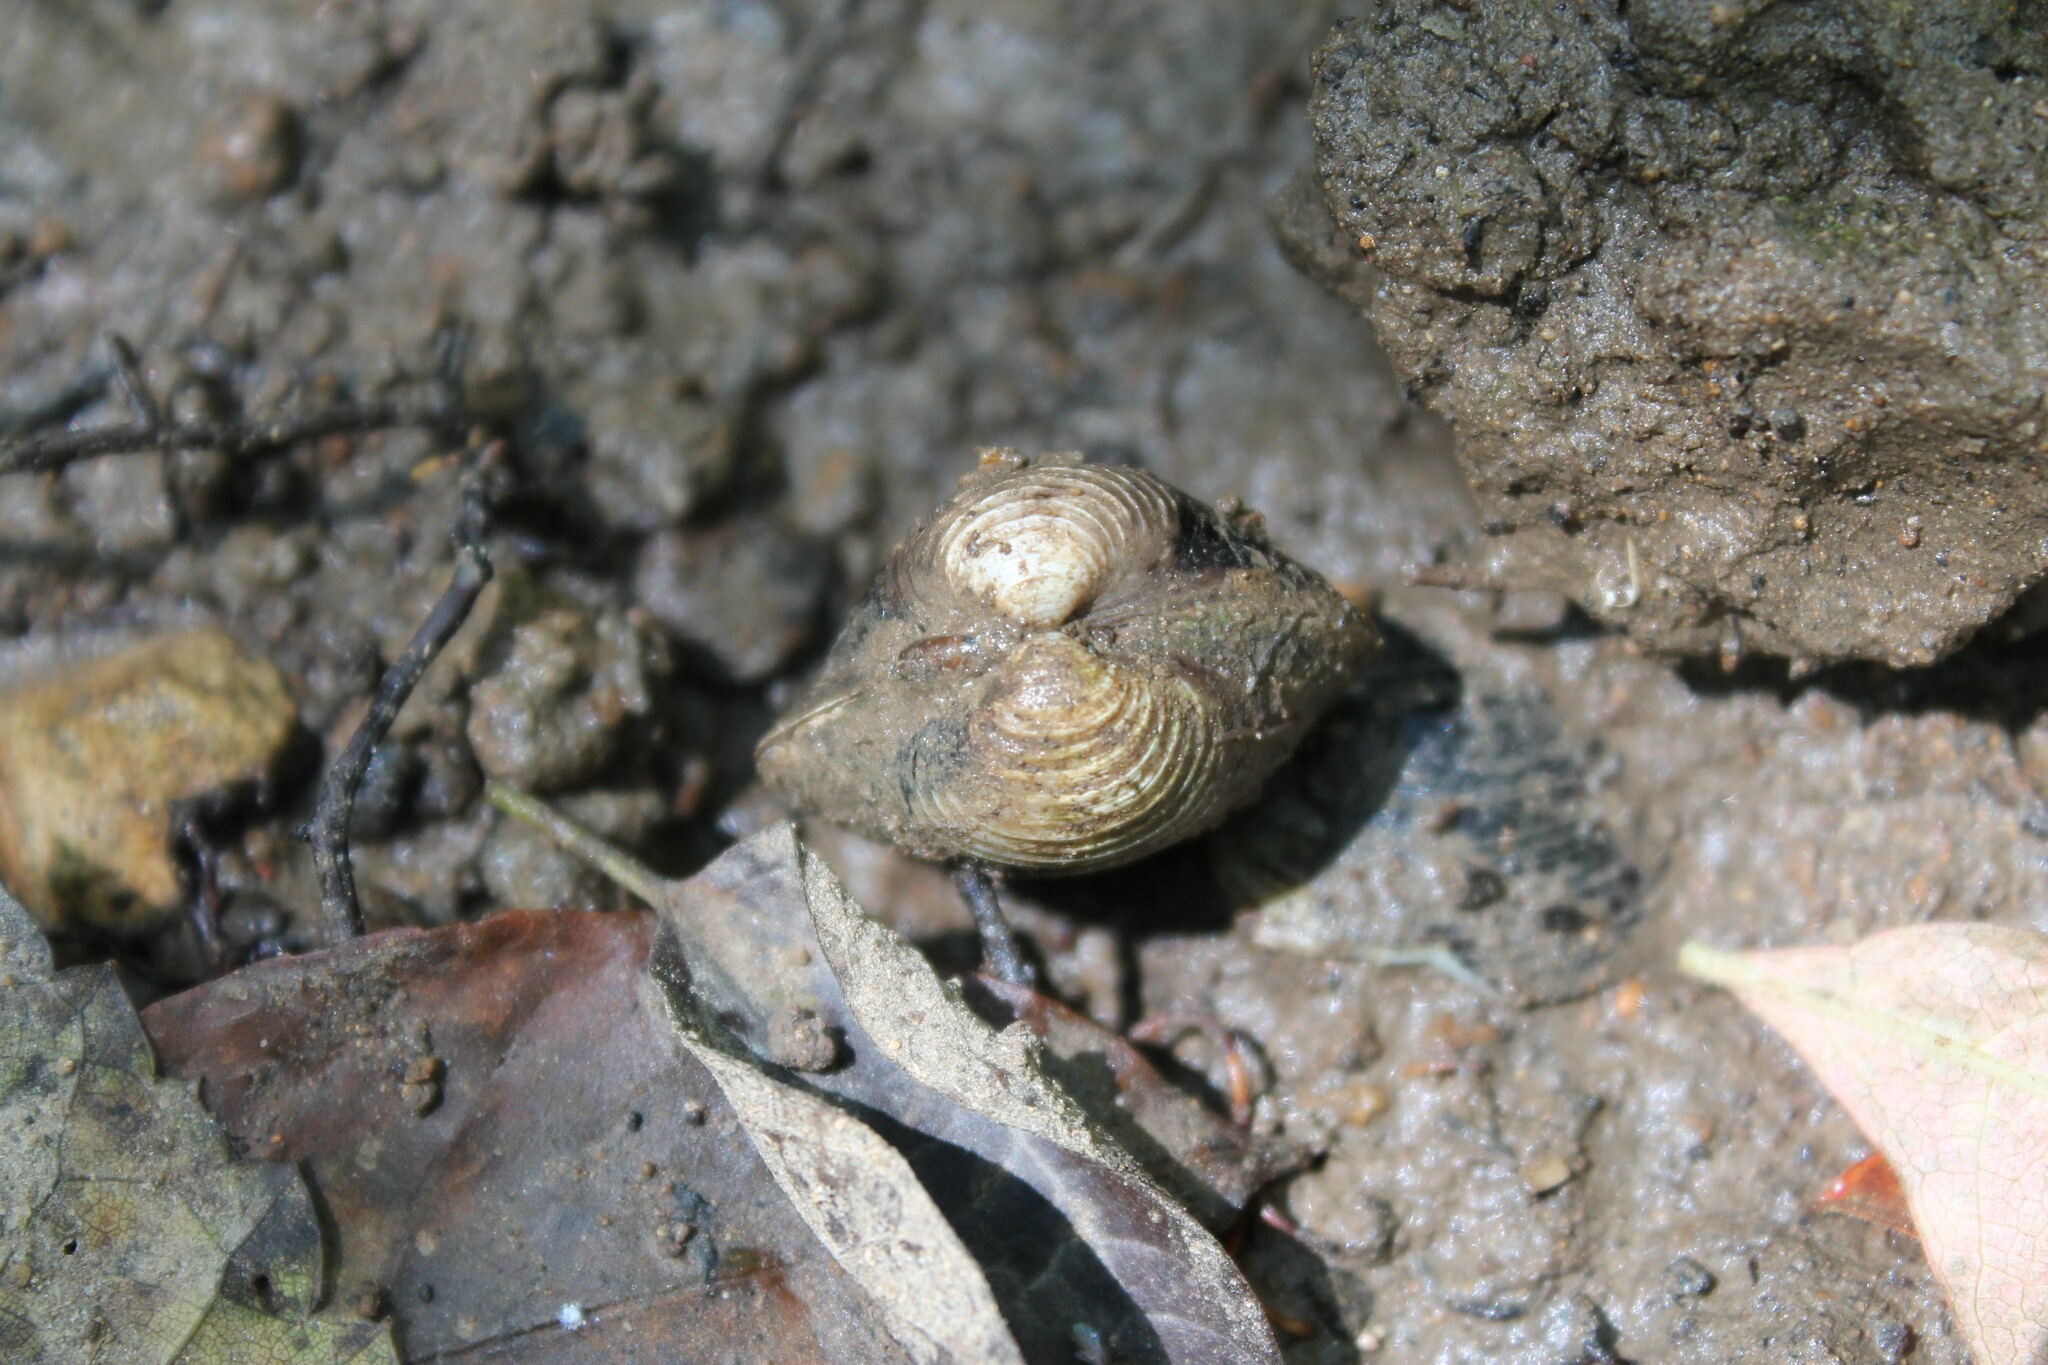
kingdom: Animalia
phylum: Mollusca
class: Bivalvia
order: Venerida
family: Cyrenidae
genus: Corbicula
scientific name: Corbicula fluminea
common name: Asian clam
